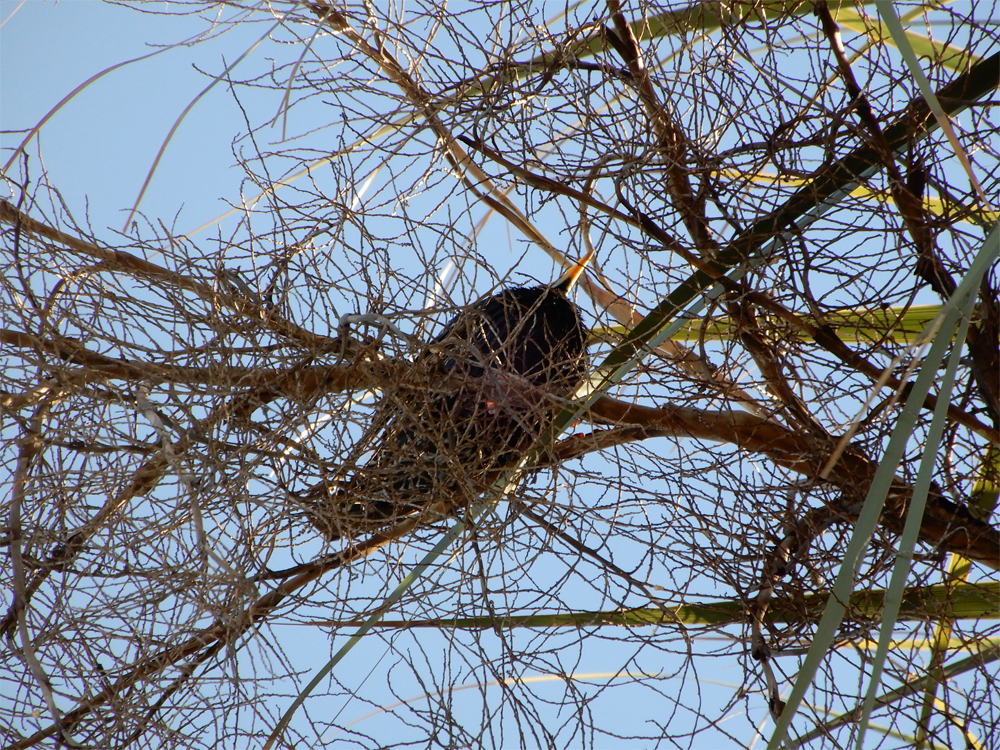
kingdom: Animalia
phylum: Chordata
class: Aves
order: Passeriformes
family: Sturnidae
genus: Sturnus
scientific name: Sturnus vulgaris
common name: Common starling
